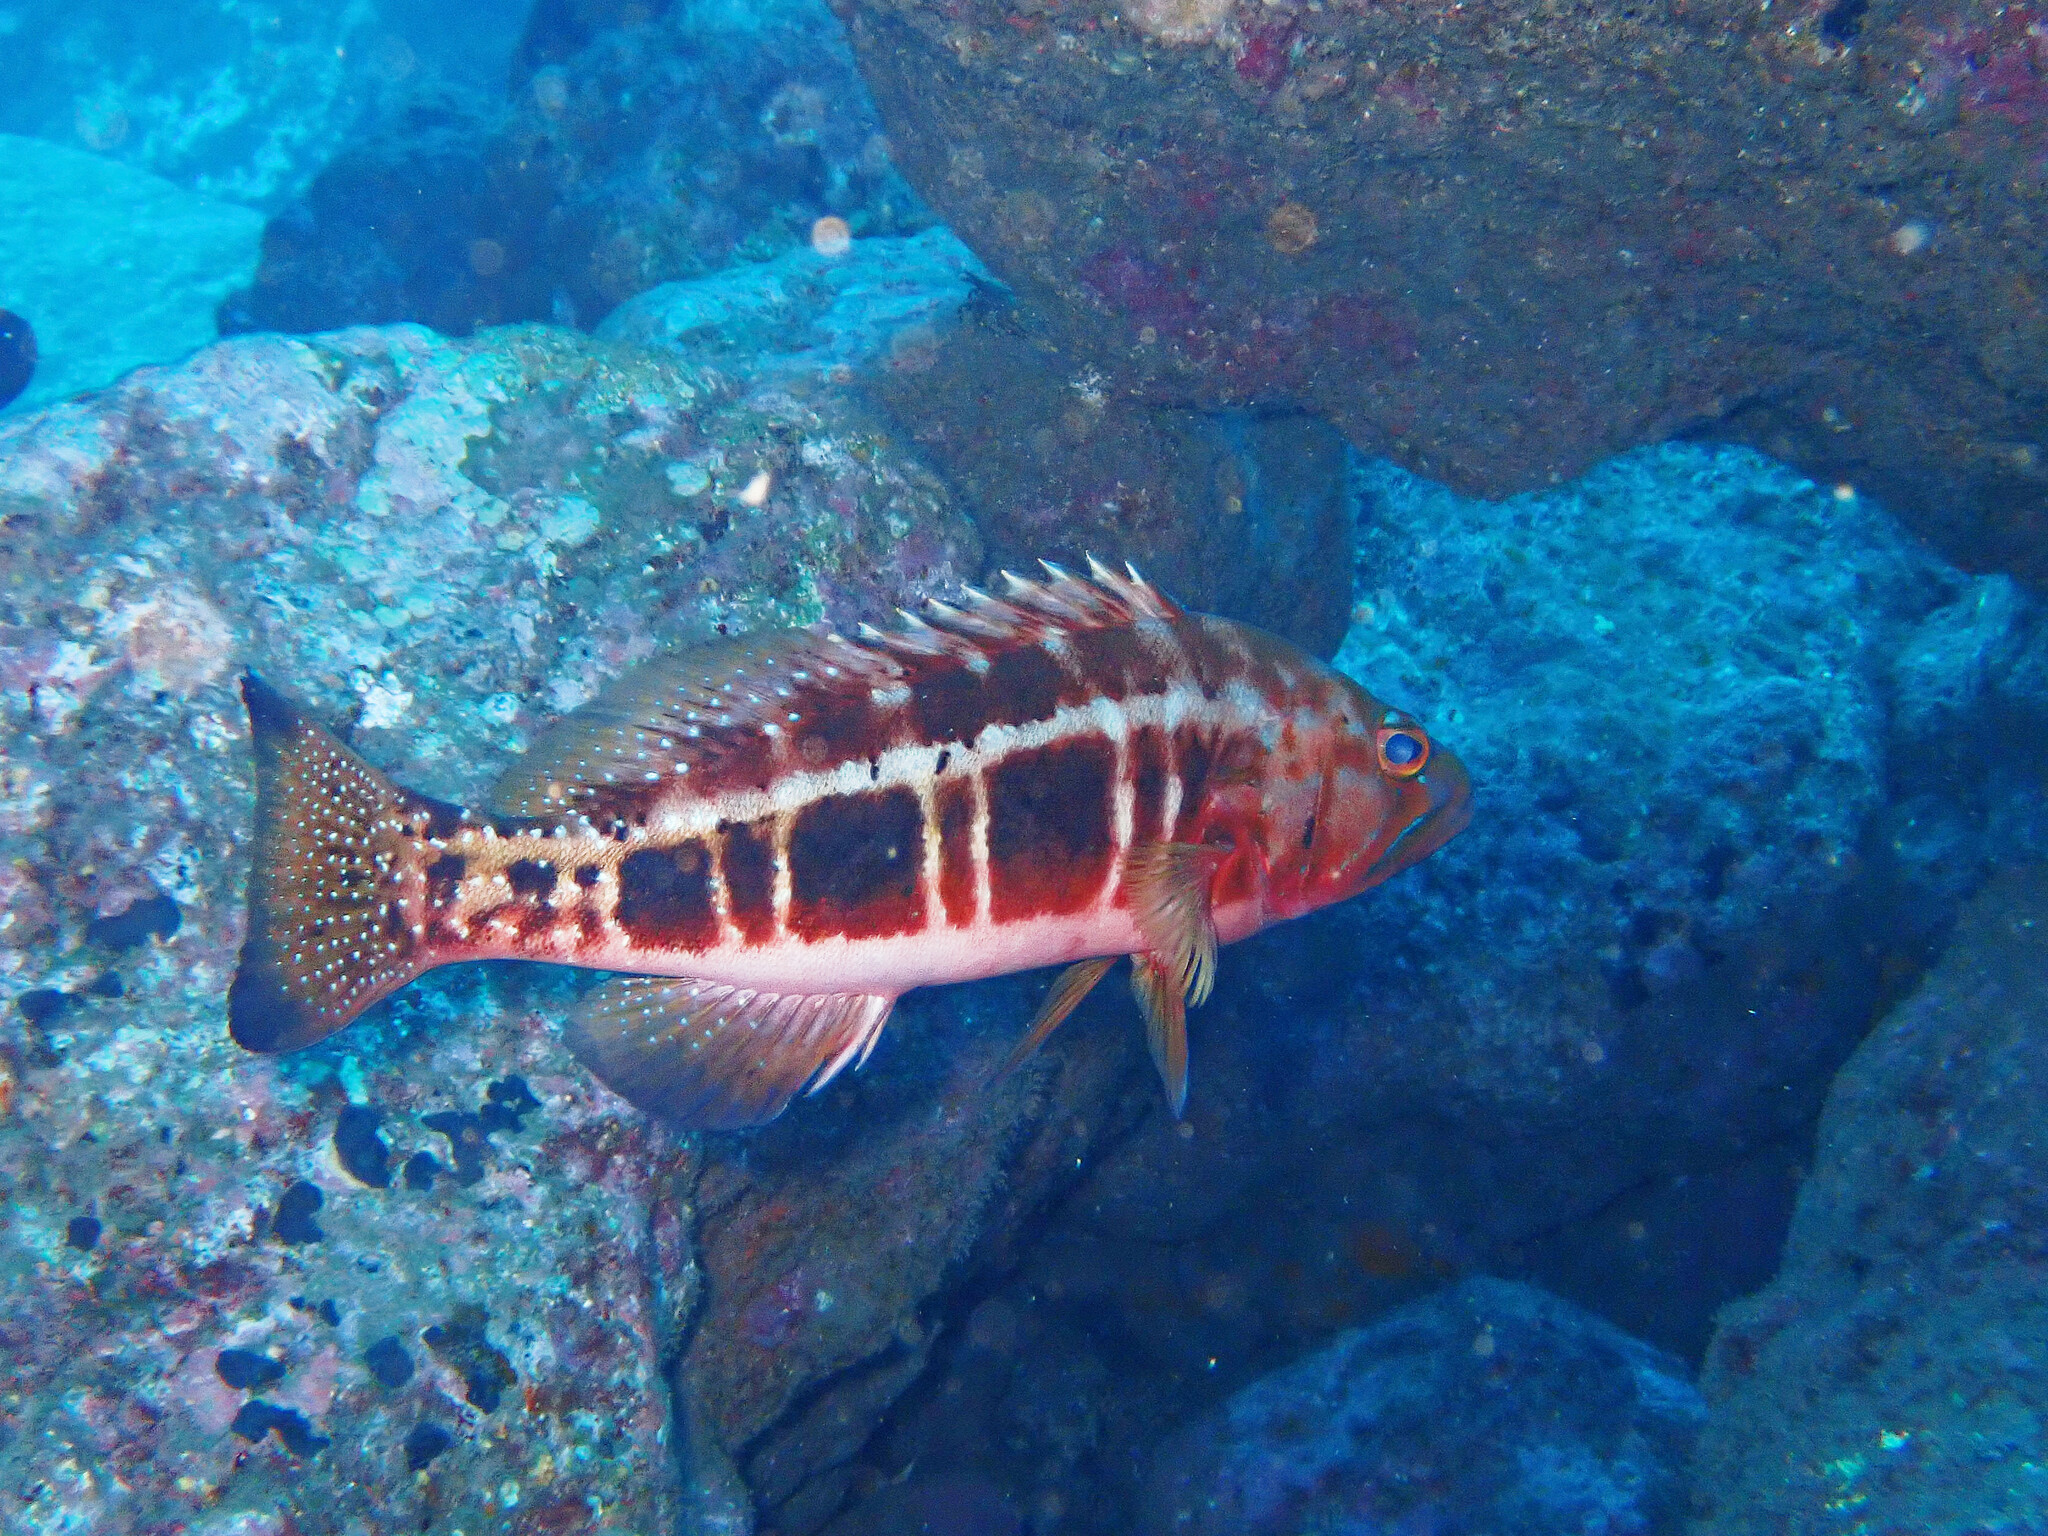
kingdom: Animalia
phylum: Chordata
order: Perciformes
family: Serranidae
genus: Serranus
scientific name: Serranus atricauda
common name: Blacktail comber
